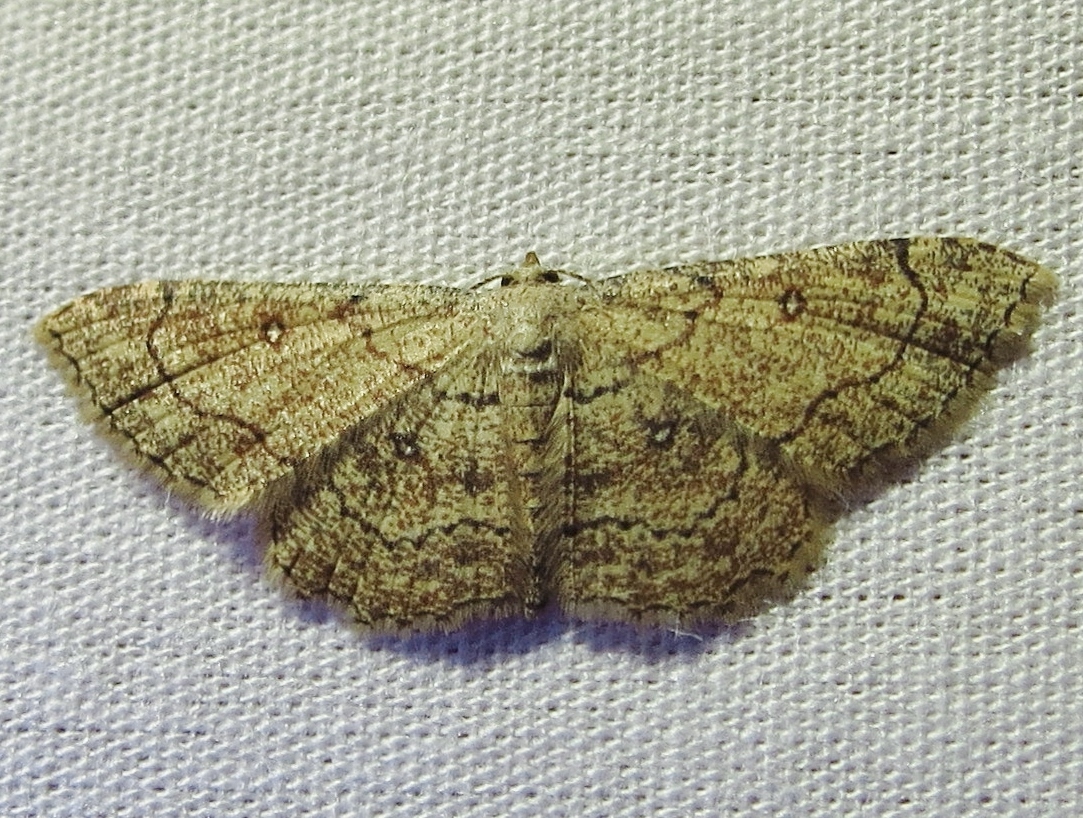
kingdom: Animalia
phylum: Arthropoda
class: Insecta
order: Lepidoptera
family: Geometridae
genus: Cyclophora
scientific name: Cyclophora nanaria
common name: Cankerworm
